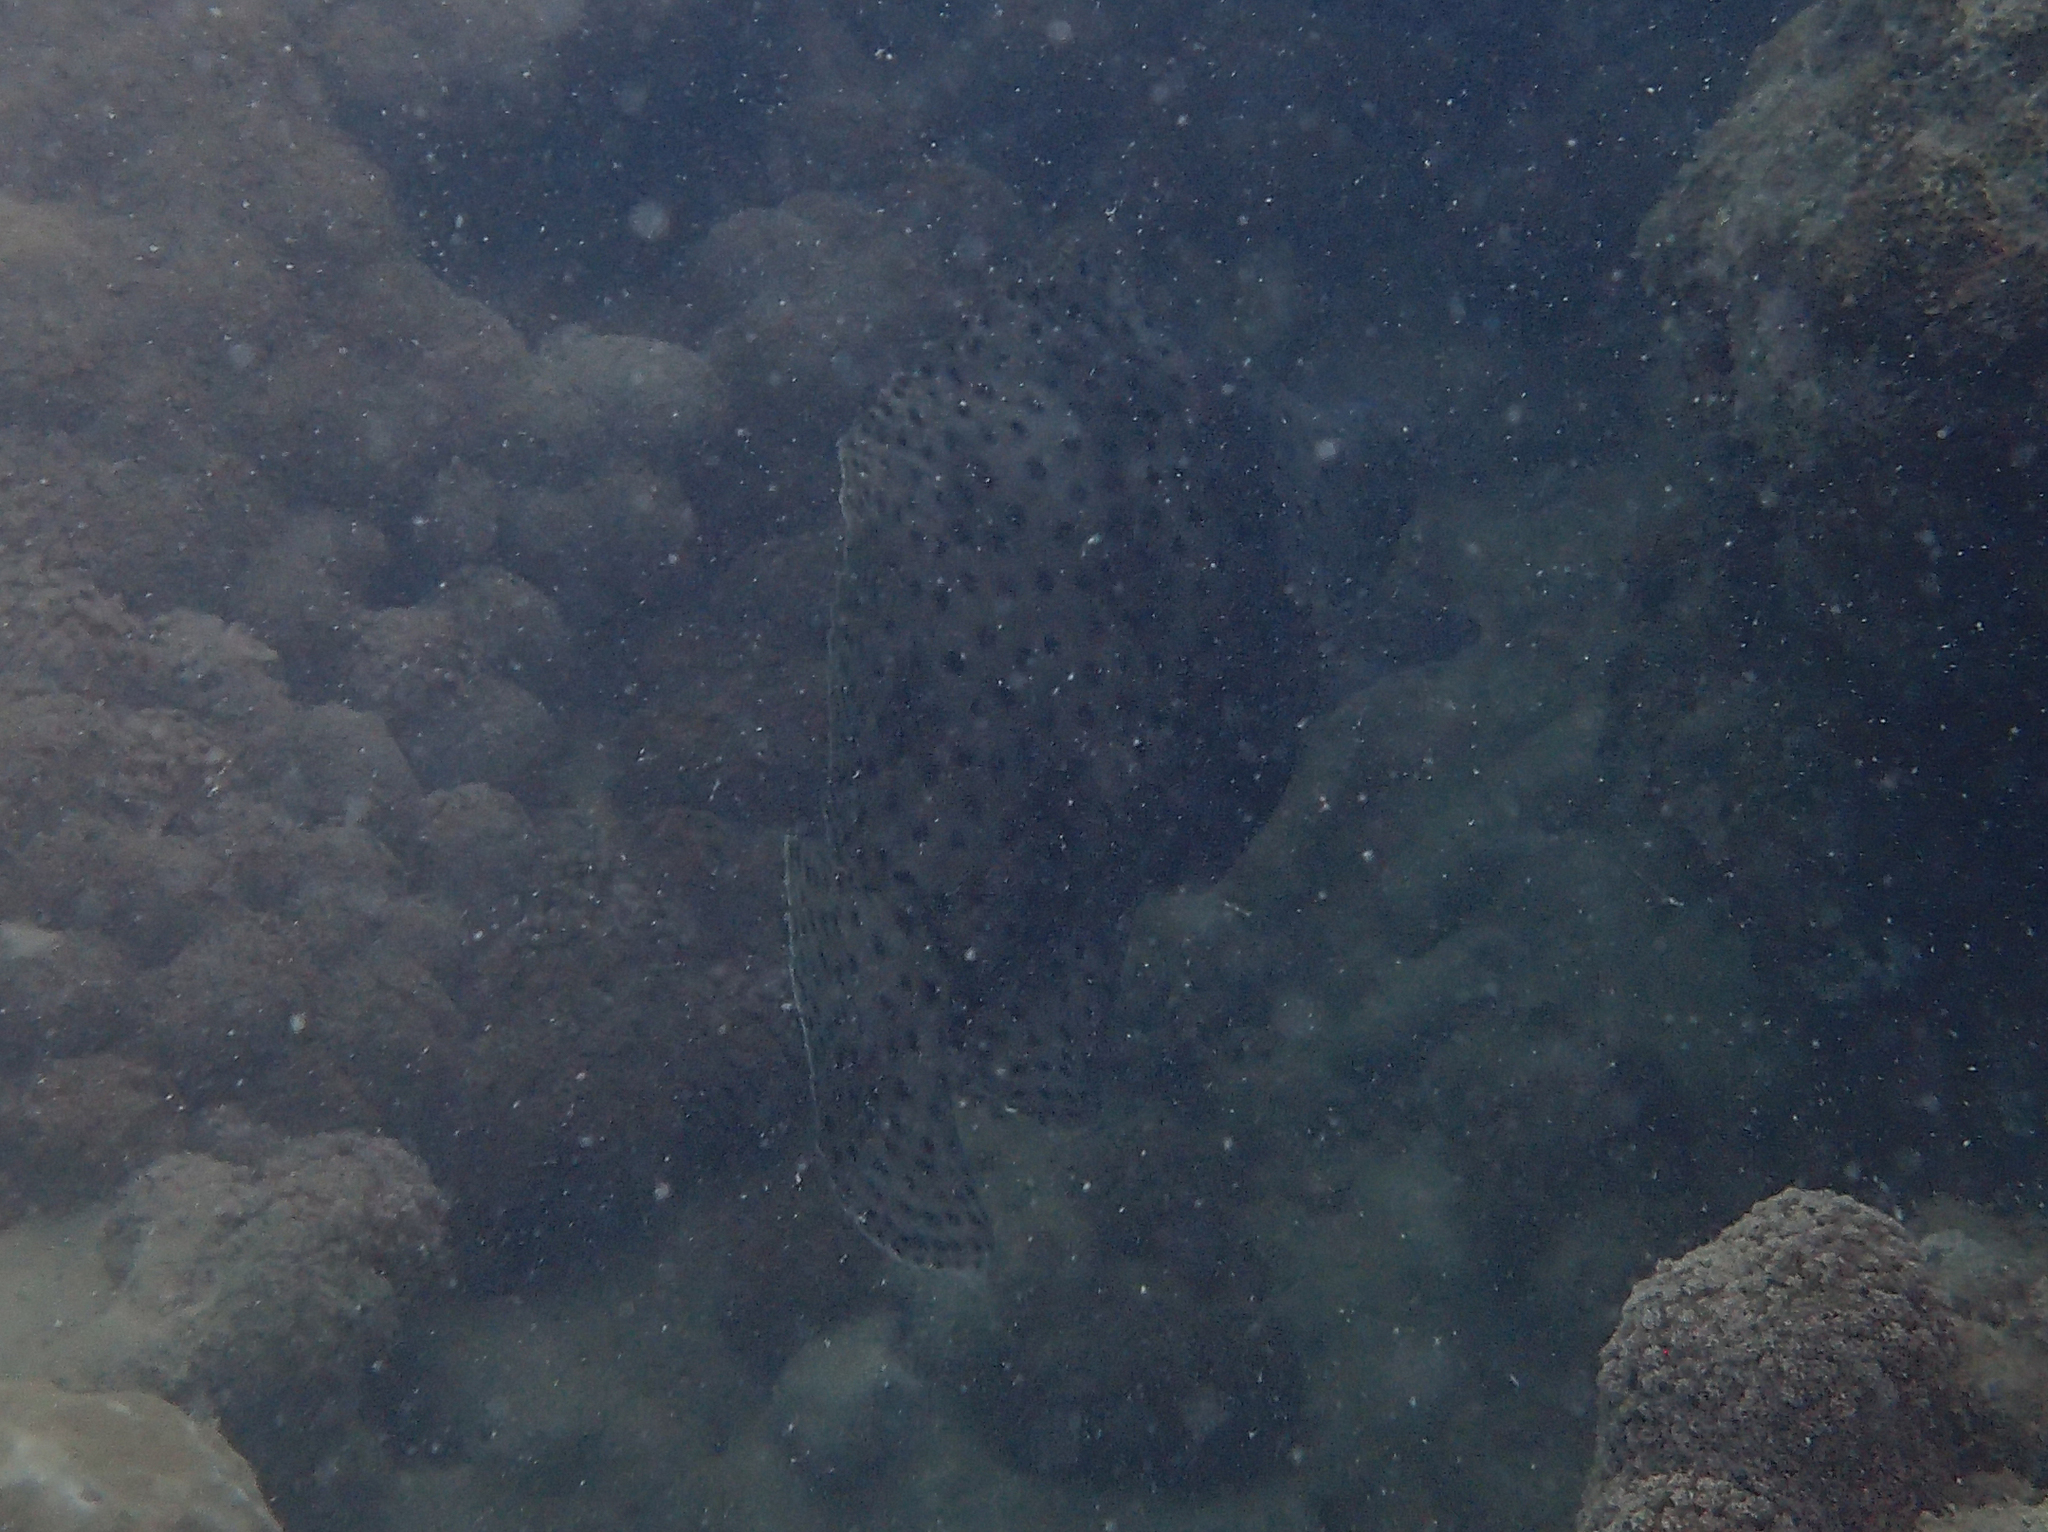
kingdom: Animalia
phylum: Chordata
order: Perciformes
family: Serranidae
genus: Cromileptes
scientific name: Cromileptes altivelis
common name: Humpback grouper
